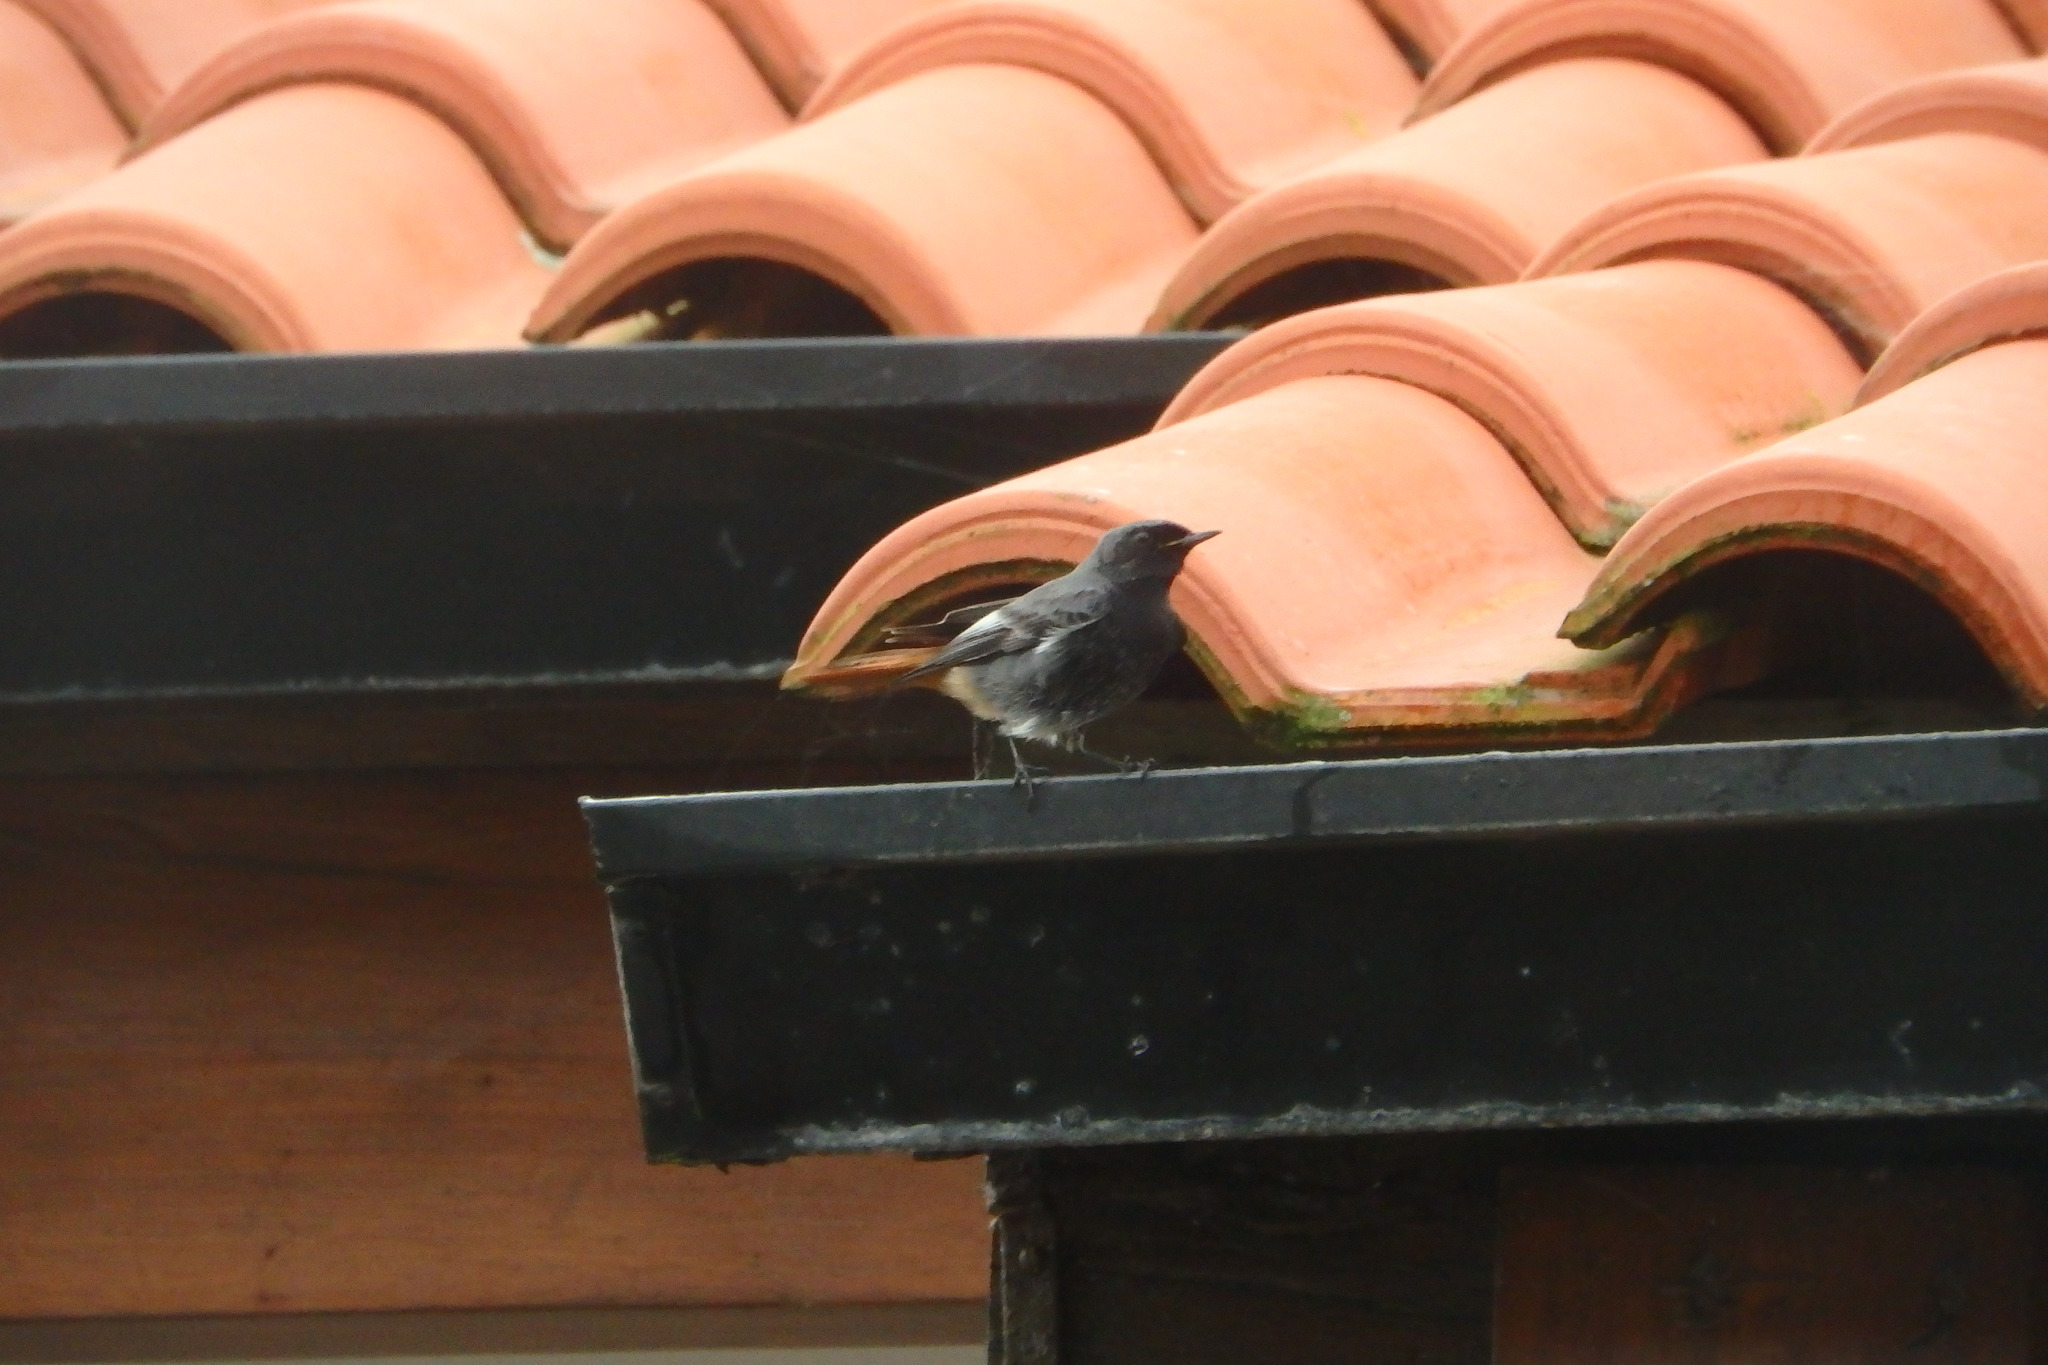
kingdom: Animalia
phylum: Chordata
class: Aves
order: Passeriformes
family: Muscicapidae
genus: Phoenicurus
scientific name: Phoenicurus ochruros
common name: Black redstart
